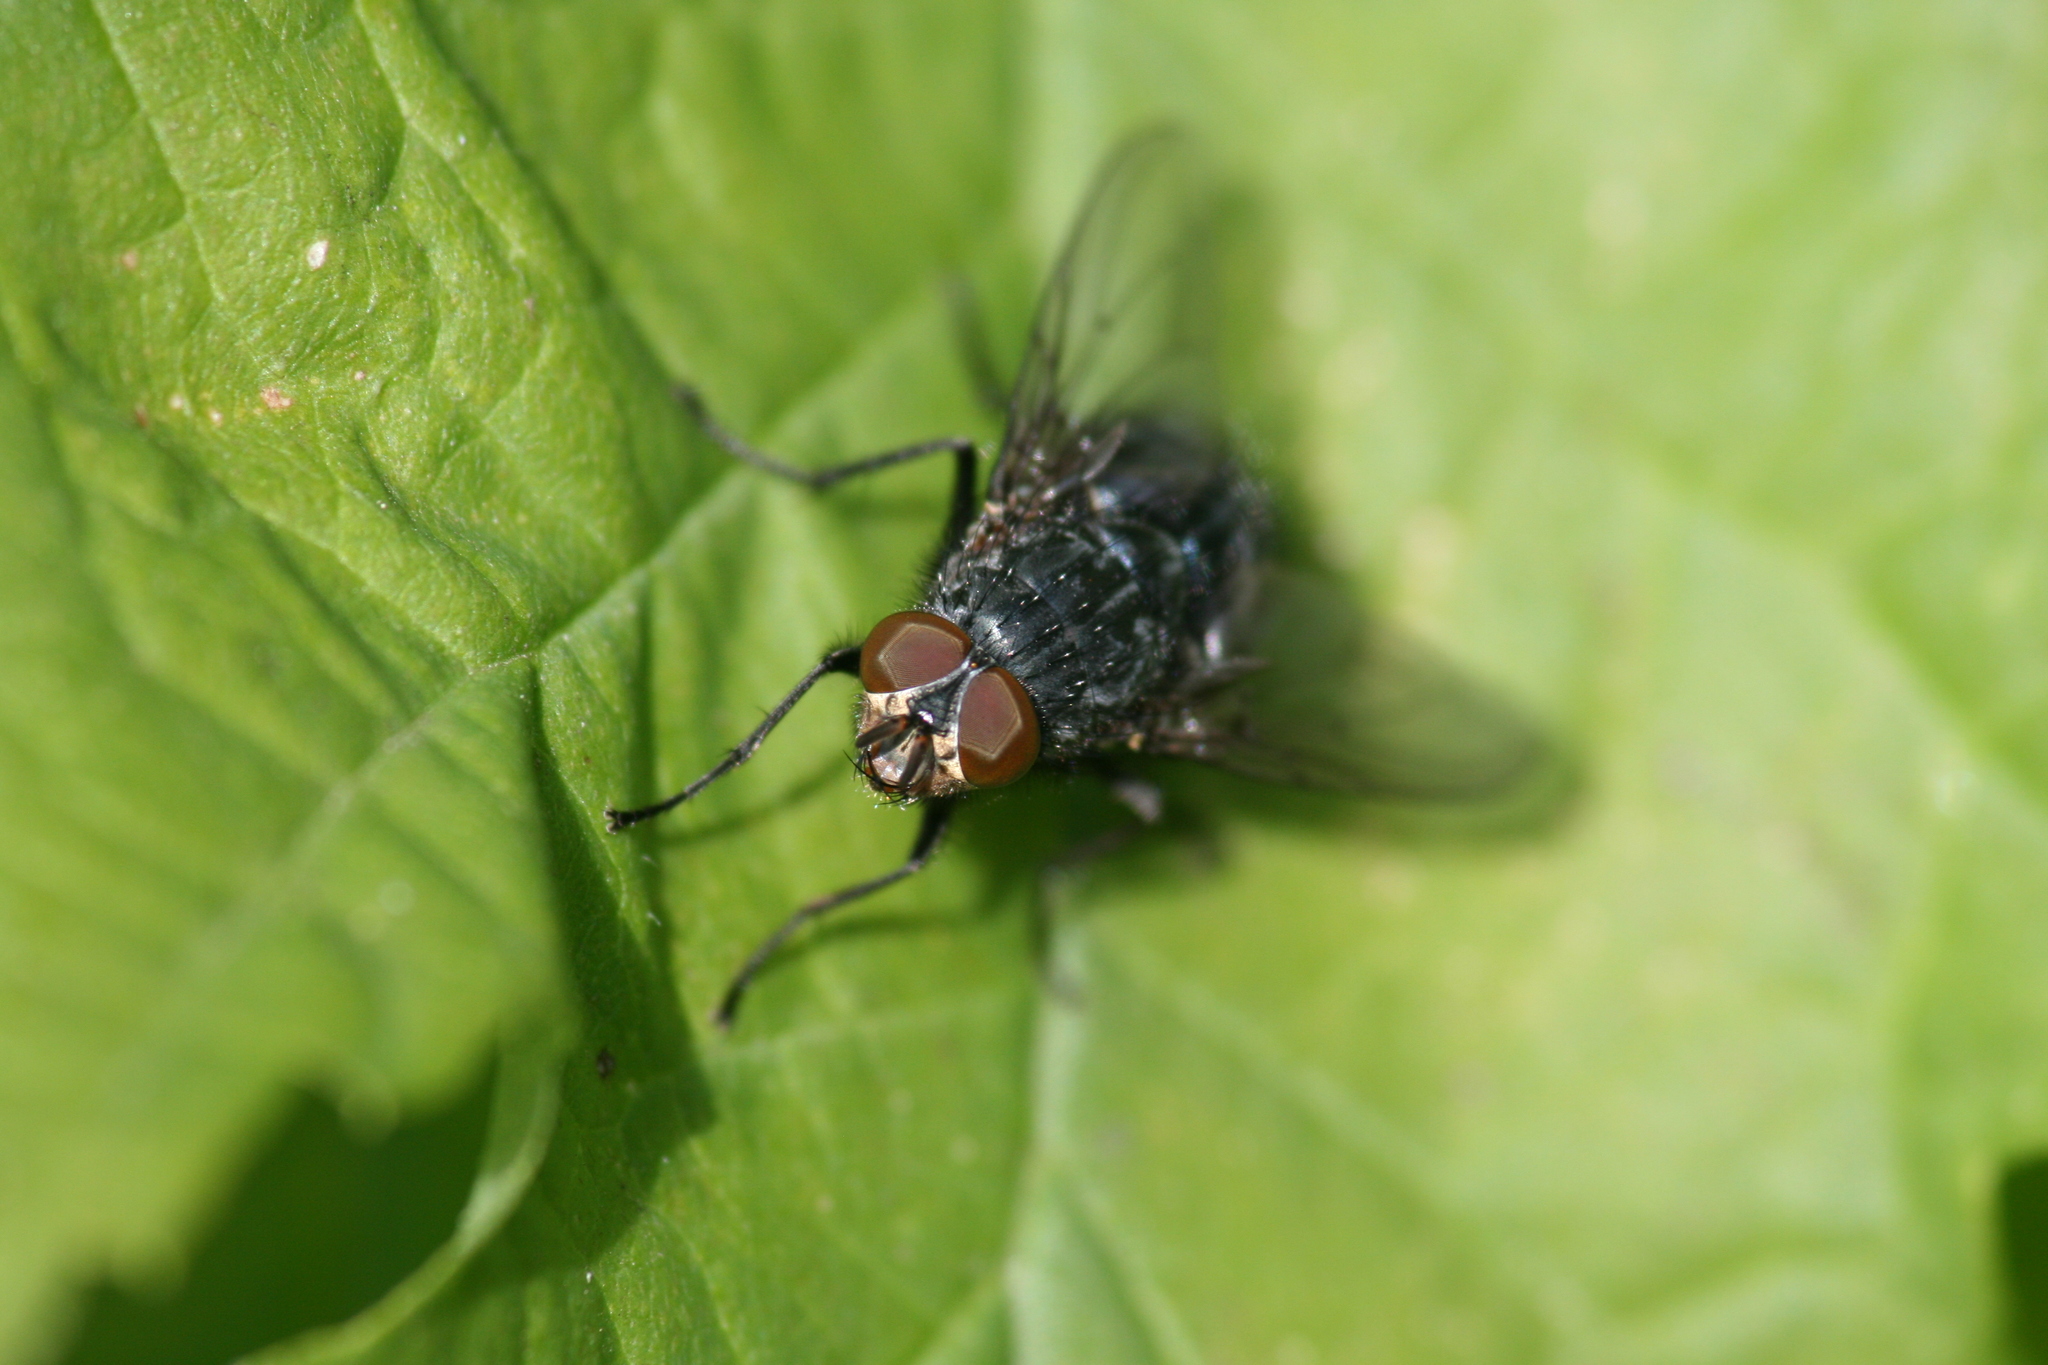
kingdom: Animalia
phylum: Arthropoda
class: Insecta
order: Diptera
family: Calliphoridae
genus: Calliphora
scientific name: Calliphora vicina
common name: Common blow flie
